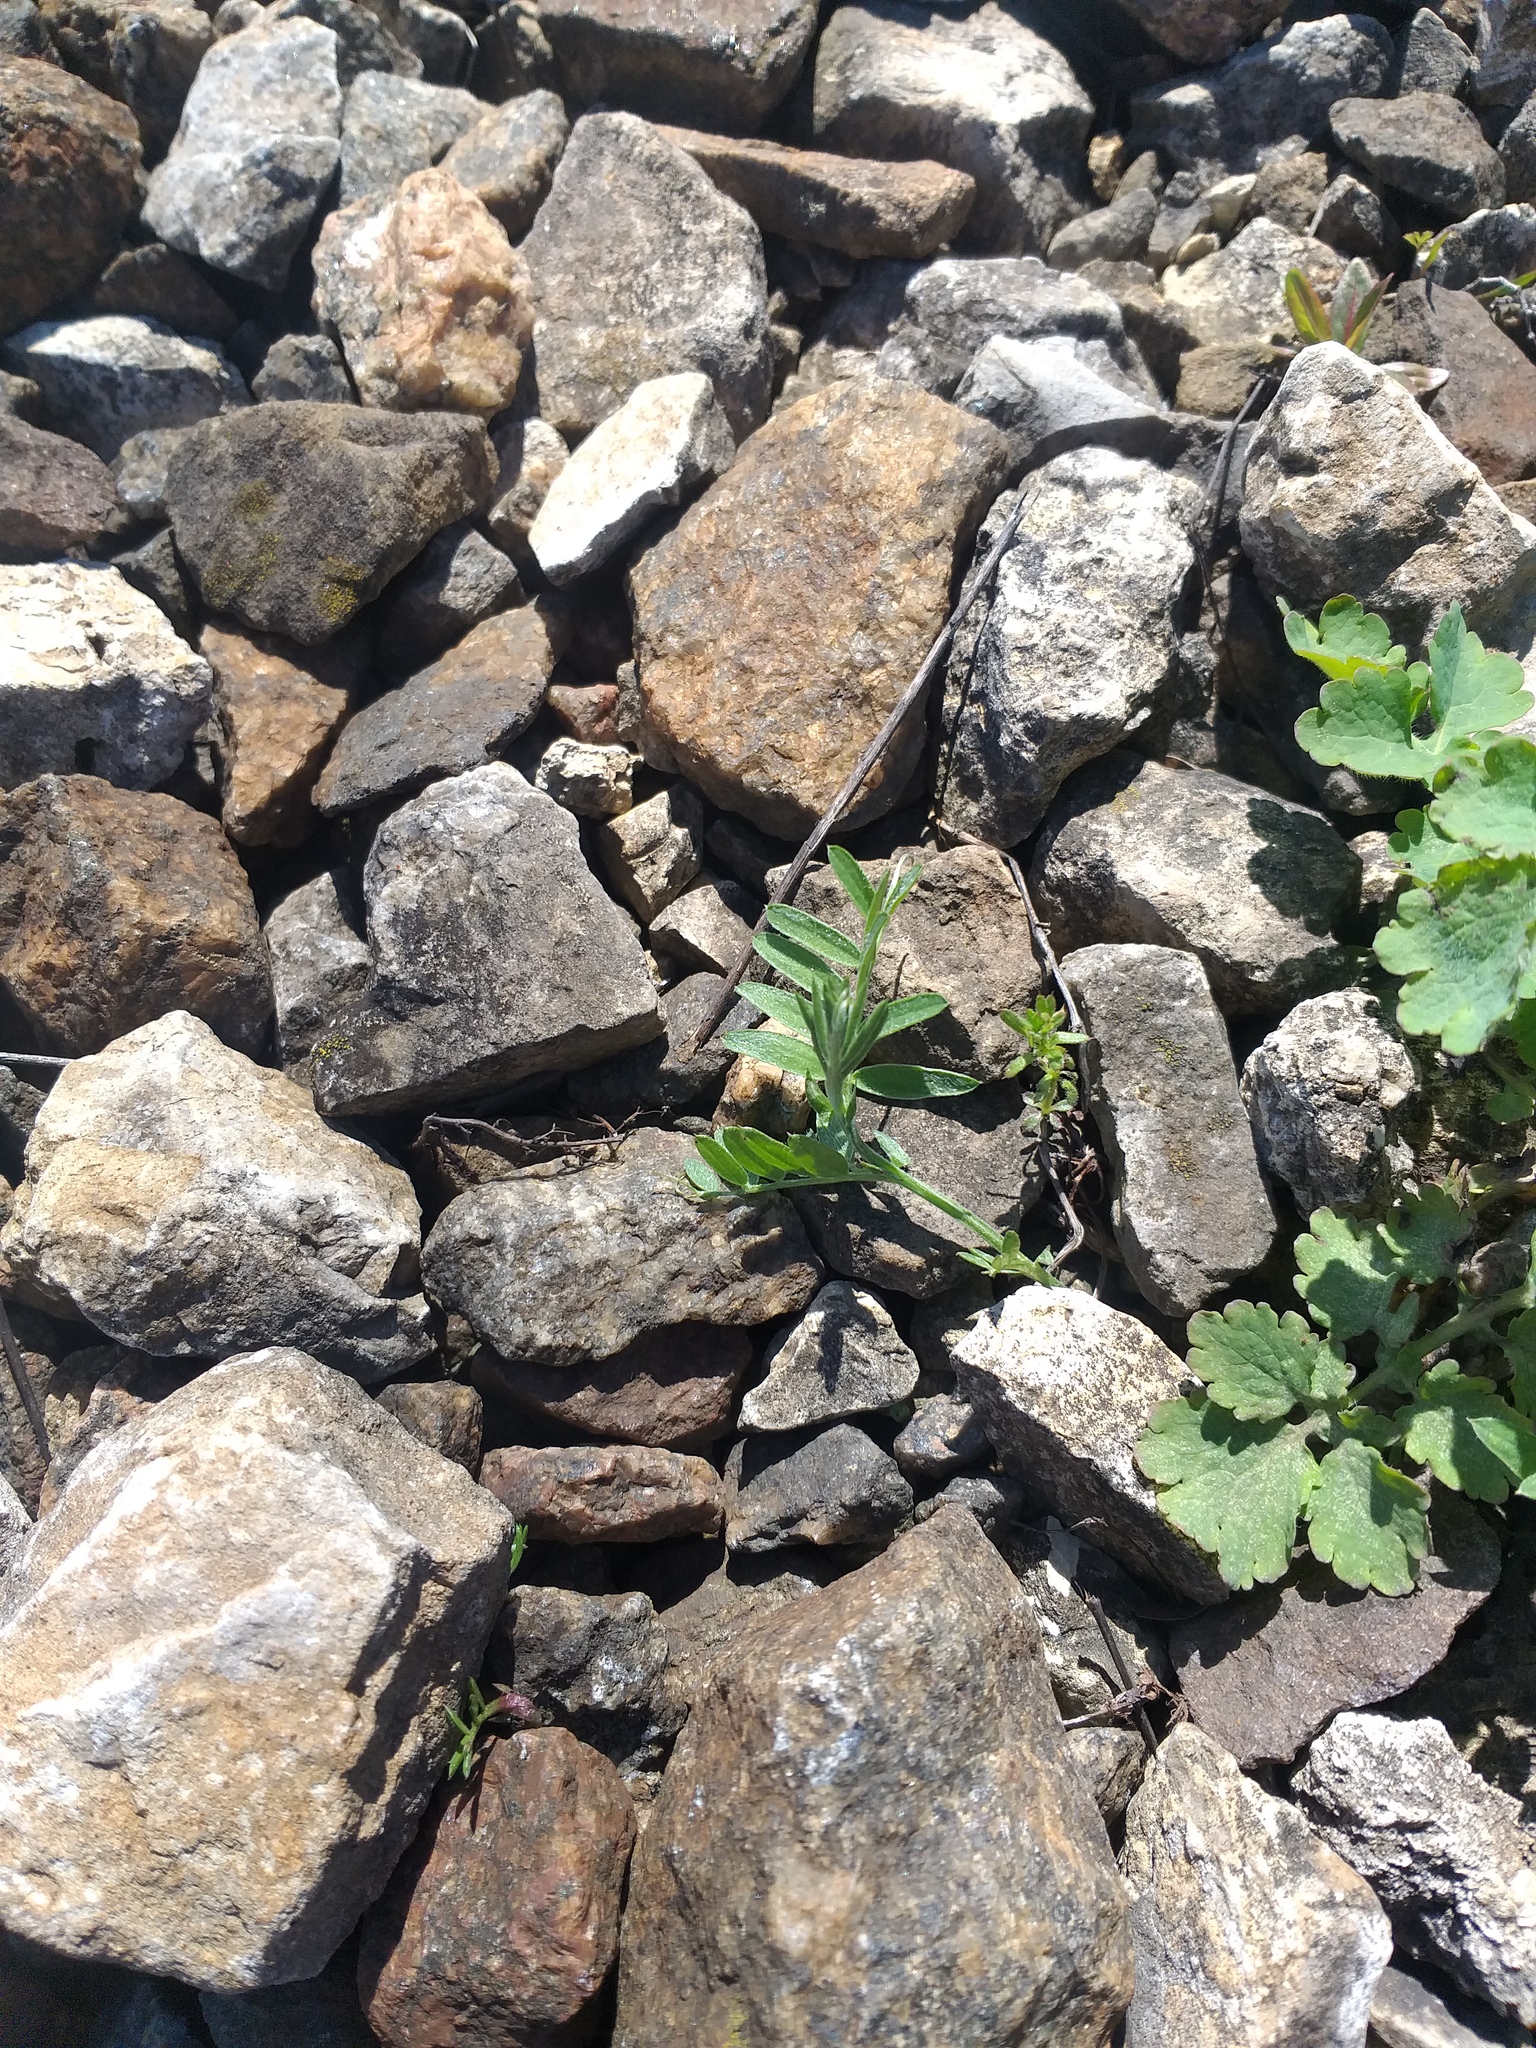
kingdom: Plantae
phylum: Tracheophyta
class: Magnoliopsida
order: Fabales
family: Fabaceae
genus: Vicia
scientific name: Vicia cracca
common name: Bird vetch
